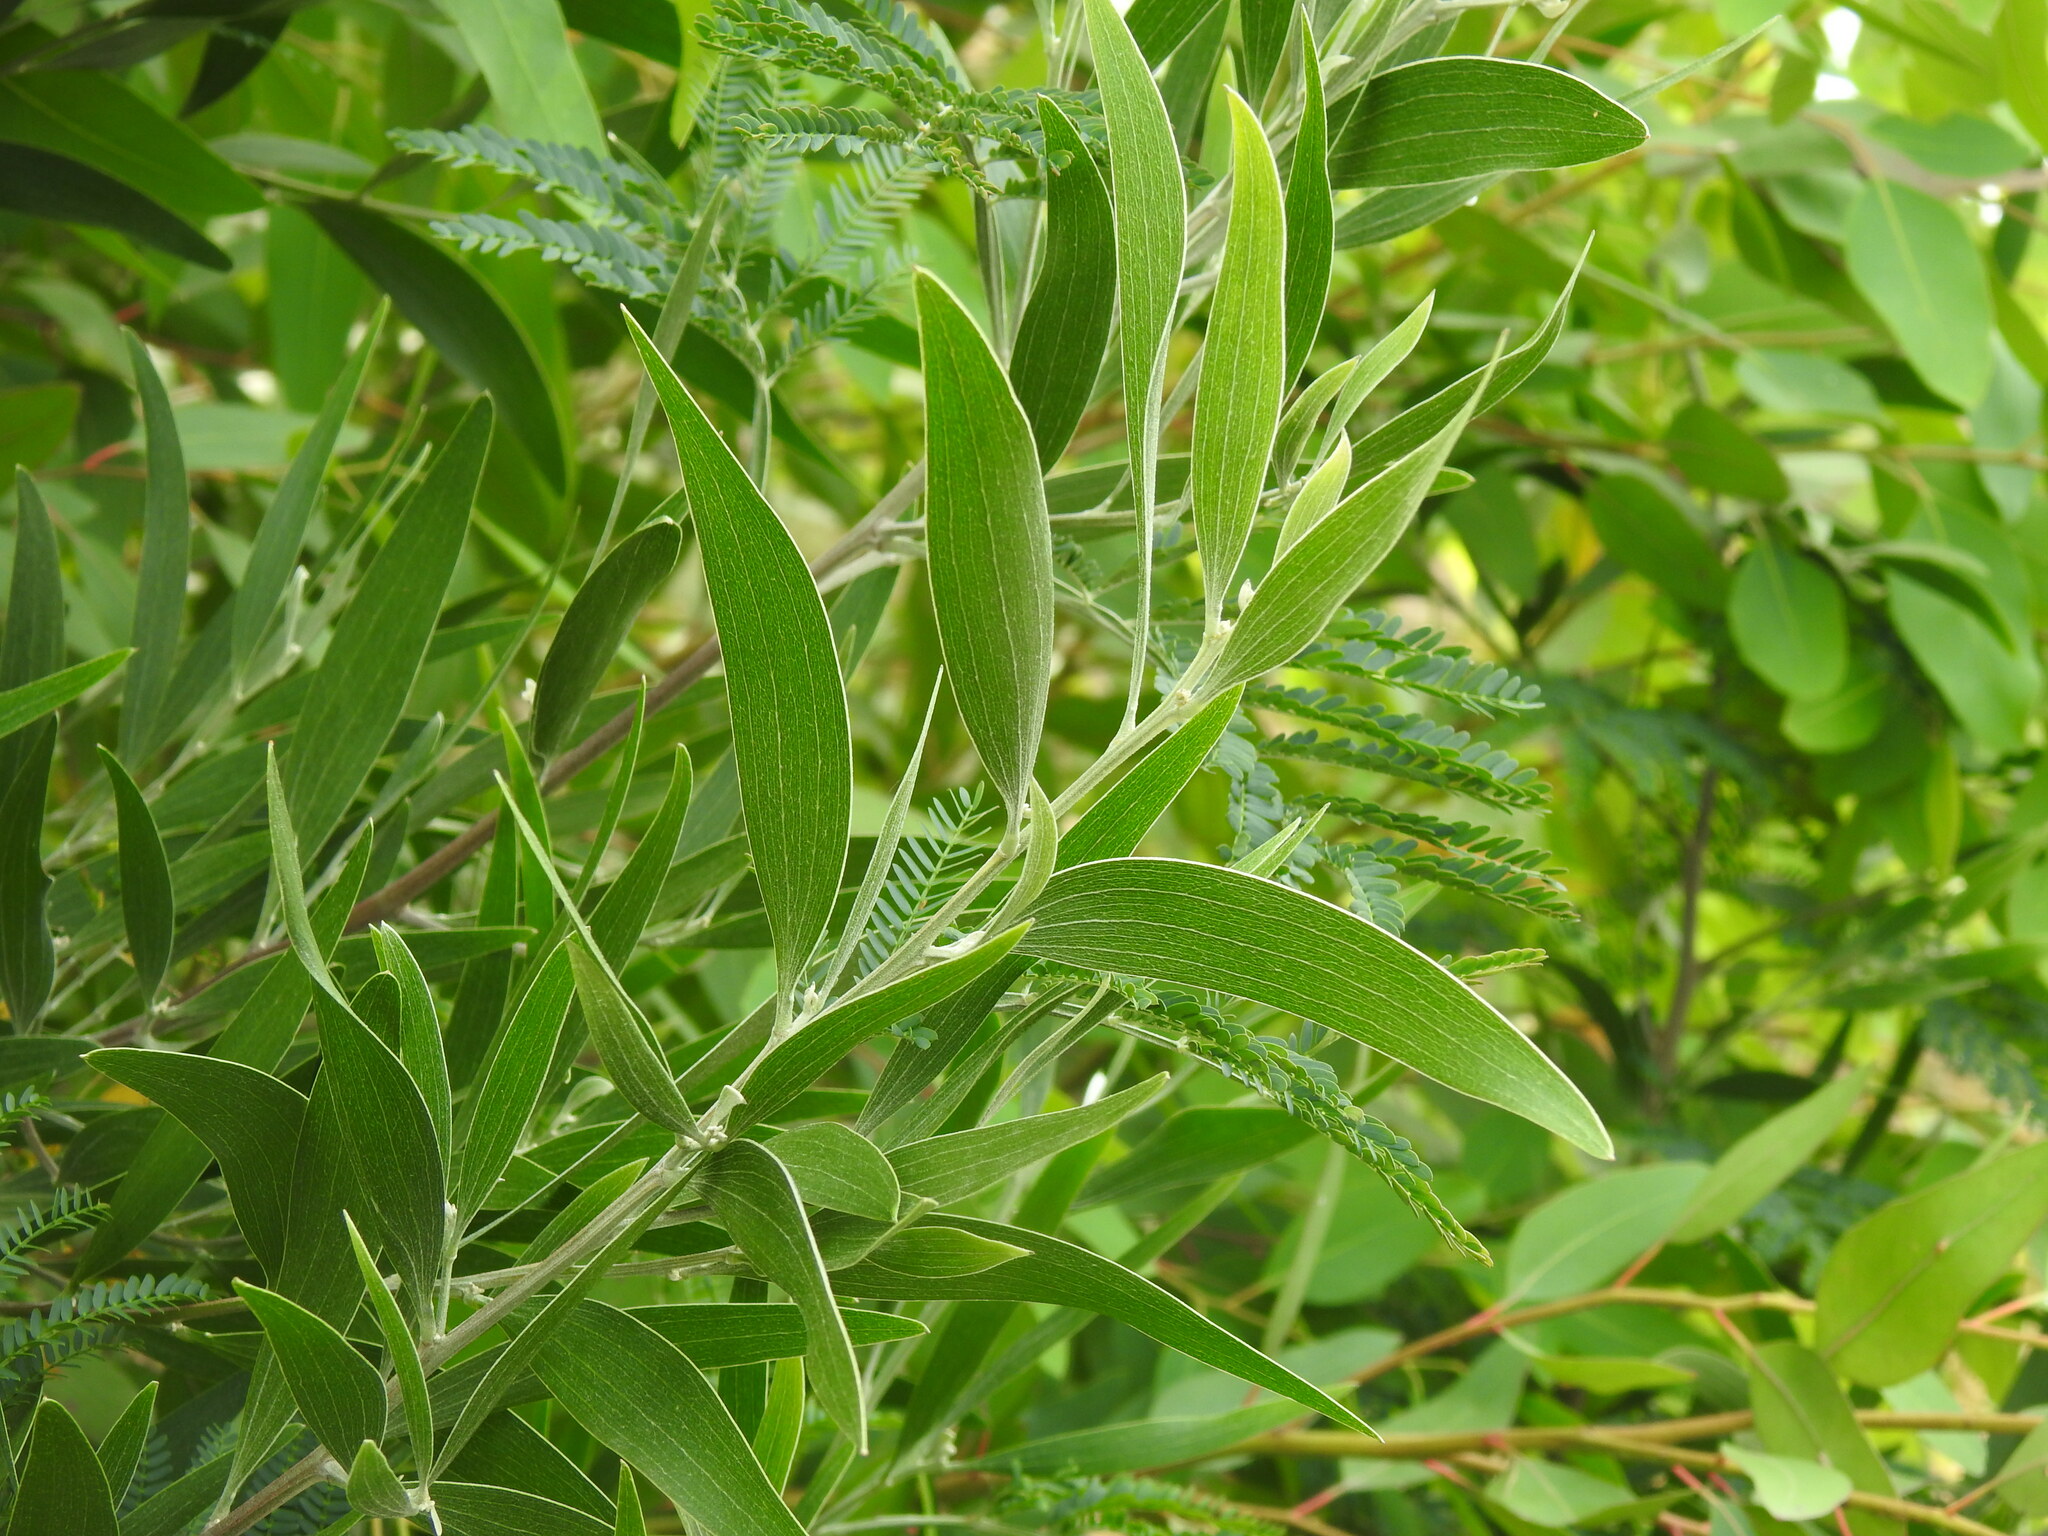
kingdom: Plantae
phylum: Tracheophyta
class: Magnoliopsida
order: Fabales
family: Fabaceae
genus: Acacia
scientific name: Acacia melanoxylon
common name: Blackwood
